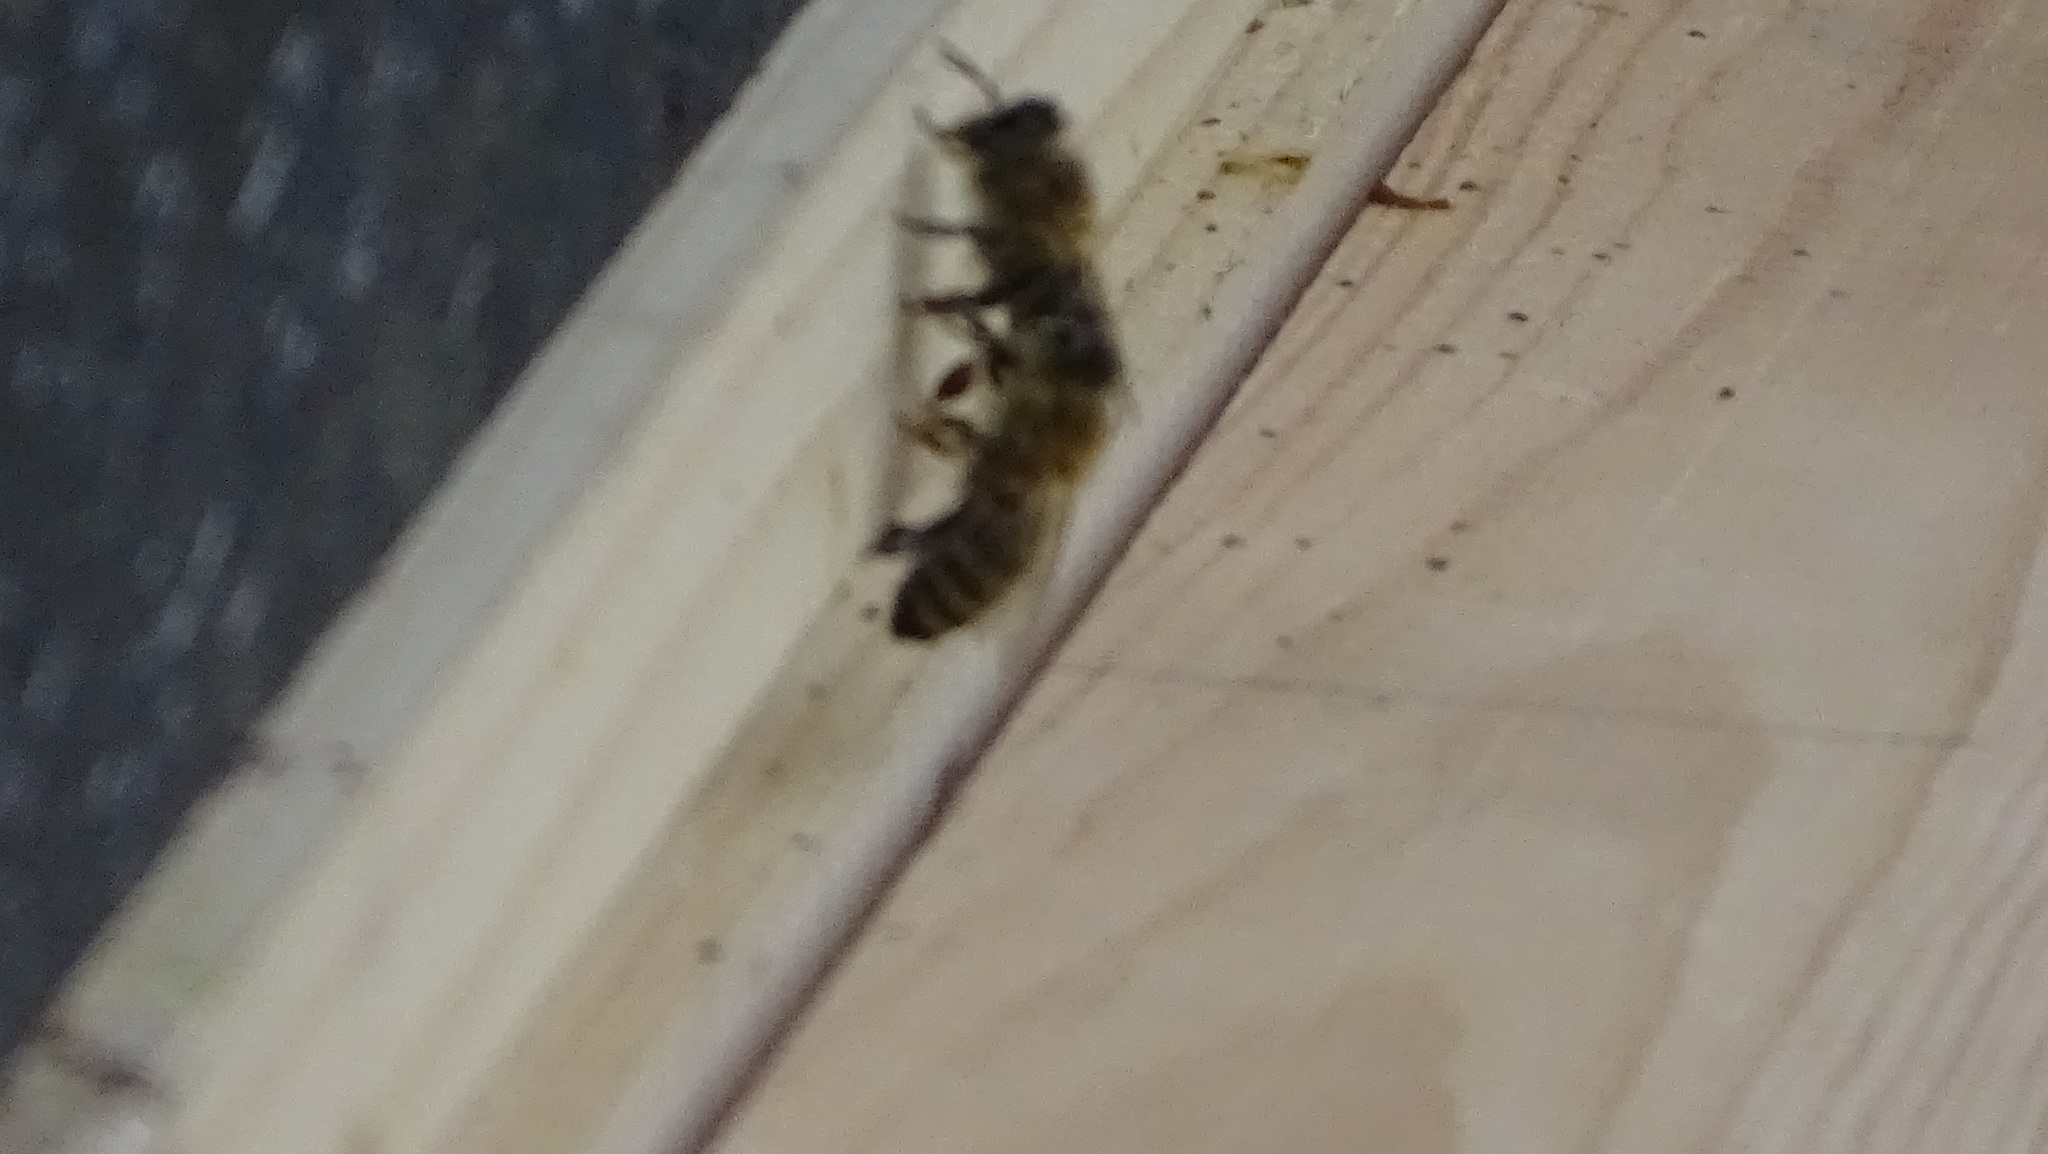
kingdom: Animalia
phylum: Arthropoda
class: Insecta
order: Hymenoptera
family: Apidae
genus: Apis
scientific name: Apis mellifera
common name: Honey bee
